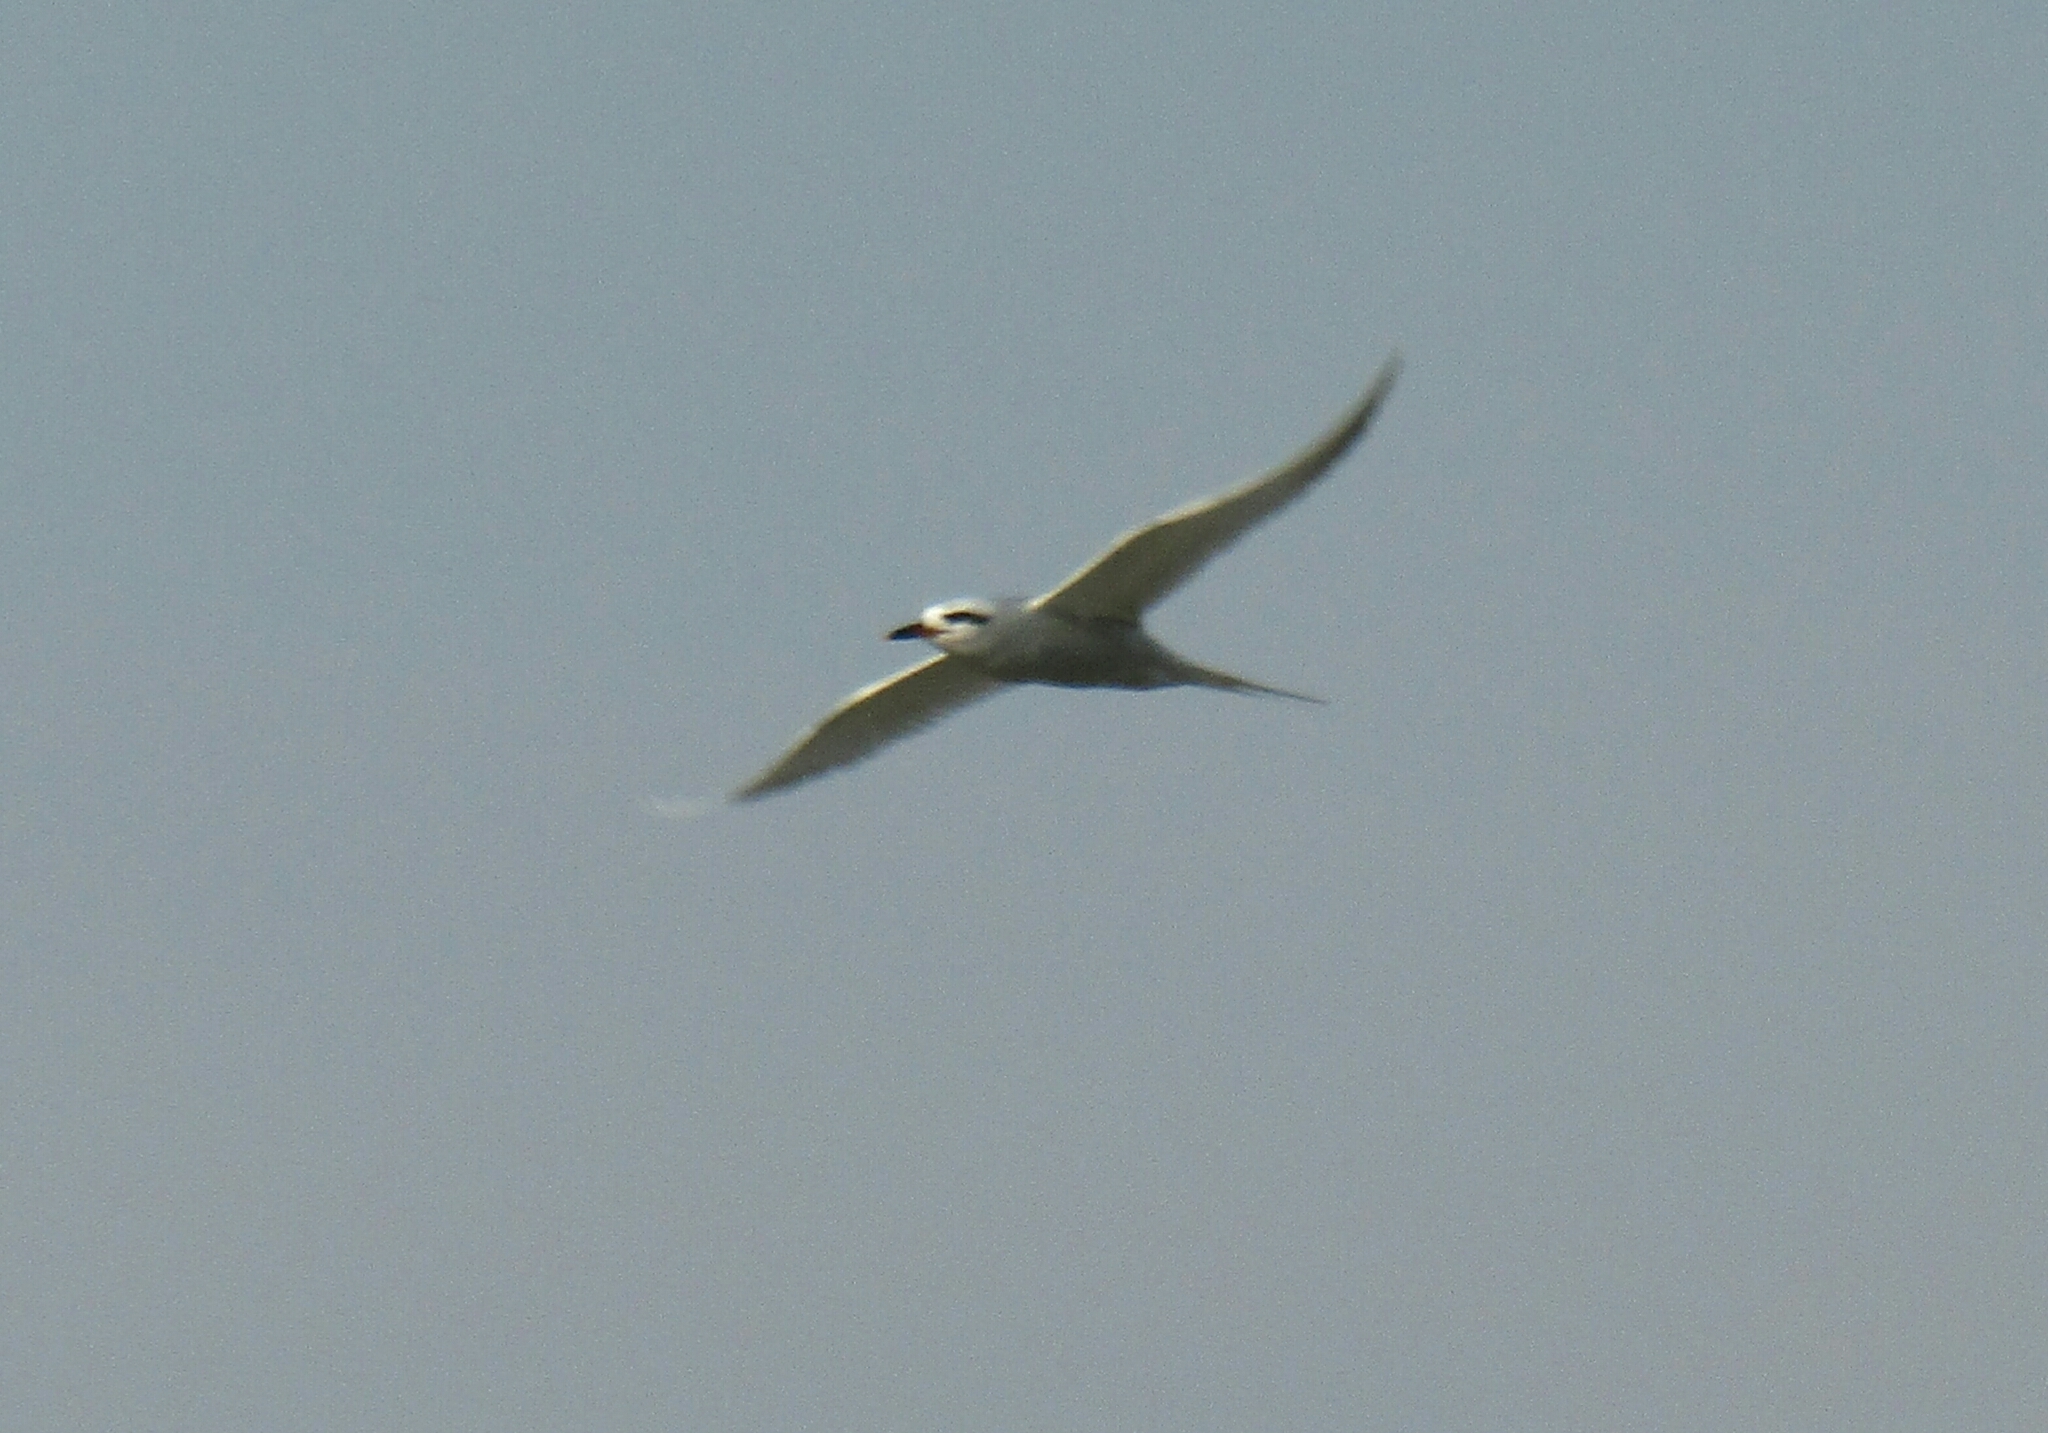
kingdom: Animalia
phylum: Chordata
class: Aves
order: Charadriiformes
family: Laridae
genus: Sterna
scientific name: Sterna trudeaui
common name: Snowy-crowned tern
